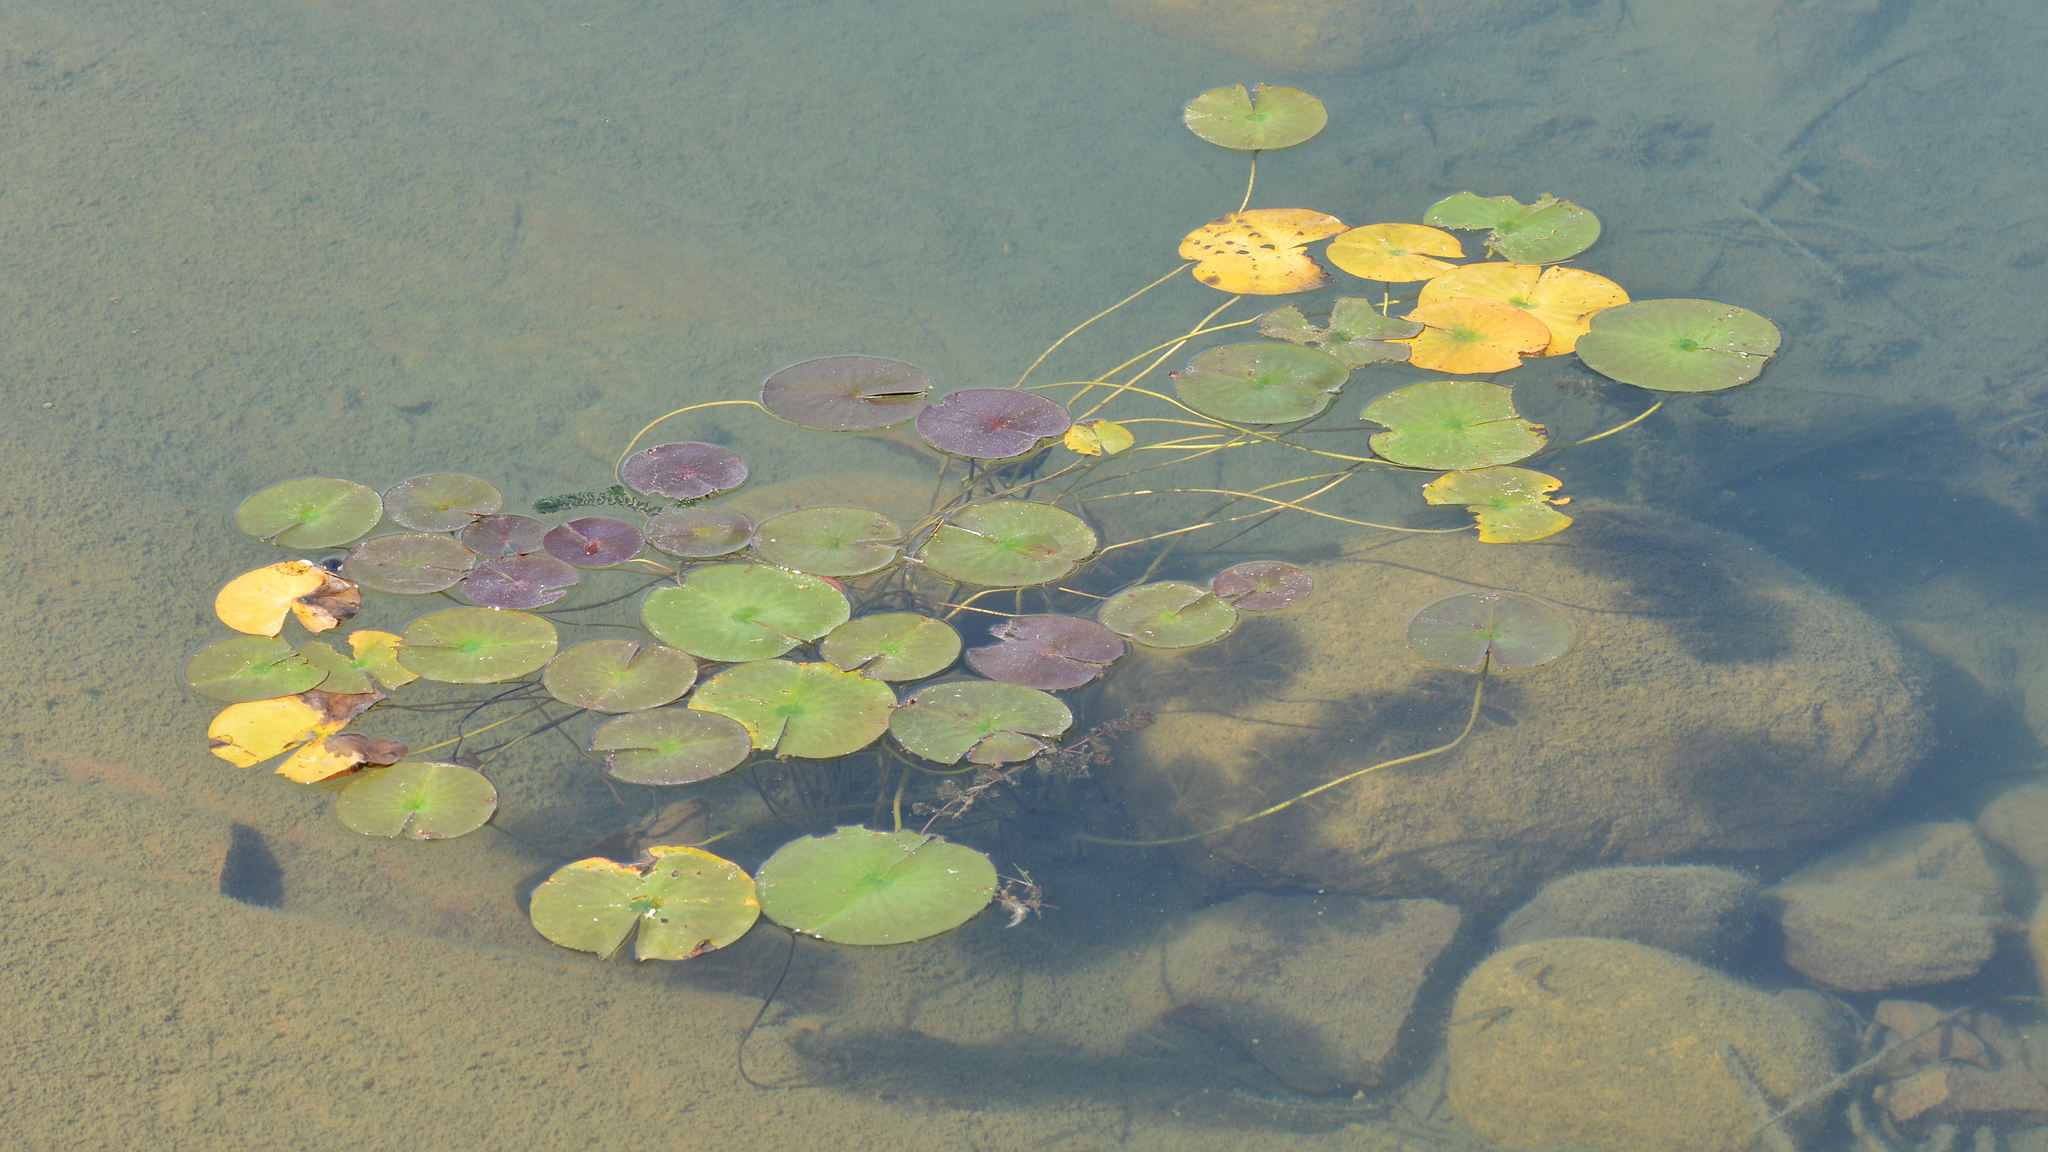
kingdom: Plantae
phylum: Tracheophyta
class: Magnoliopsida
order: Nymphaeales
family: Nymphaeaceae
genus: Nymphaea
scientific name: Nymphaea odorata
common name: Fragrant water-lily
